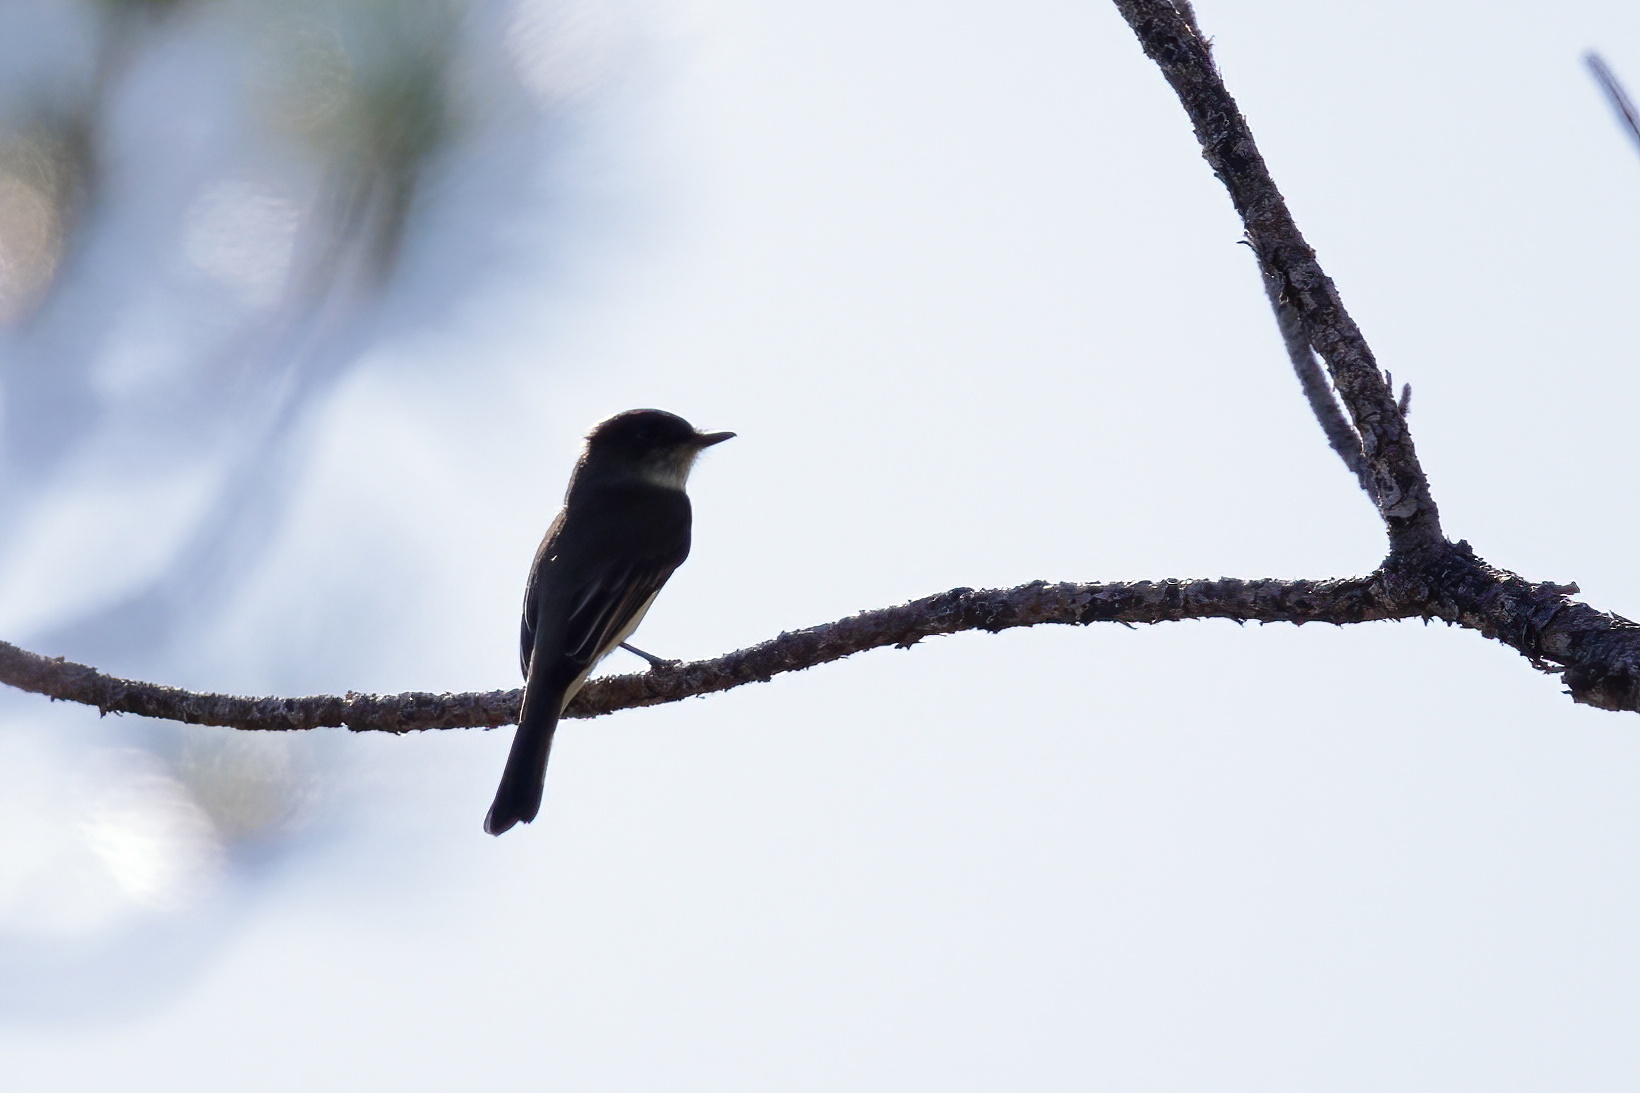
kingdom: Animalia
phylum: Chordata
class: Aves
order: Passeriformes
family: Tyrannidae
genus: Sayornis
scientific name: Sayornis phoebe
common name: Eastern phoebe
